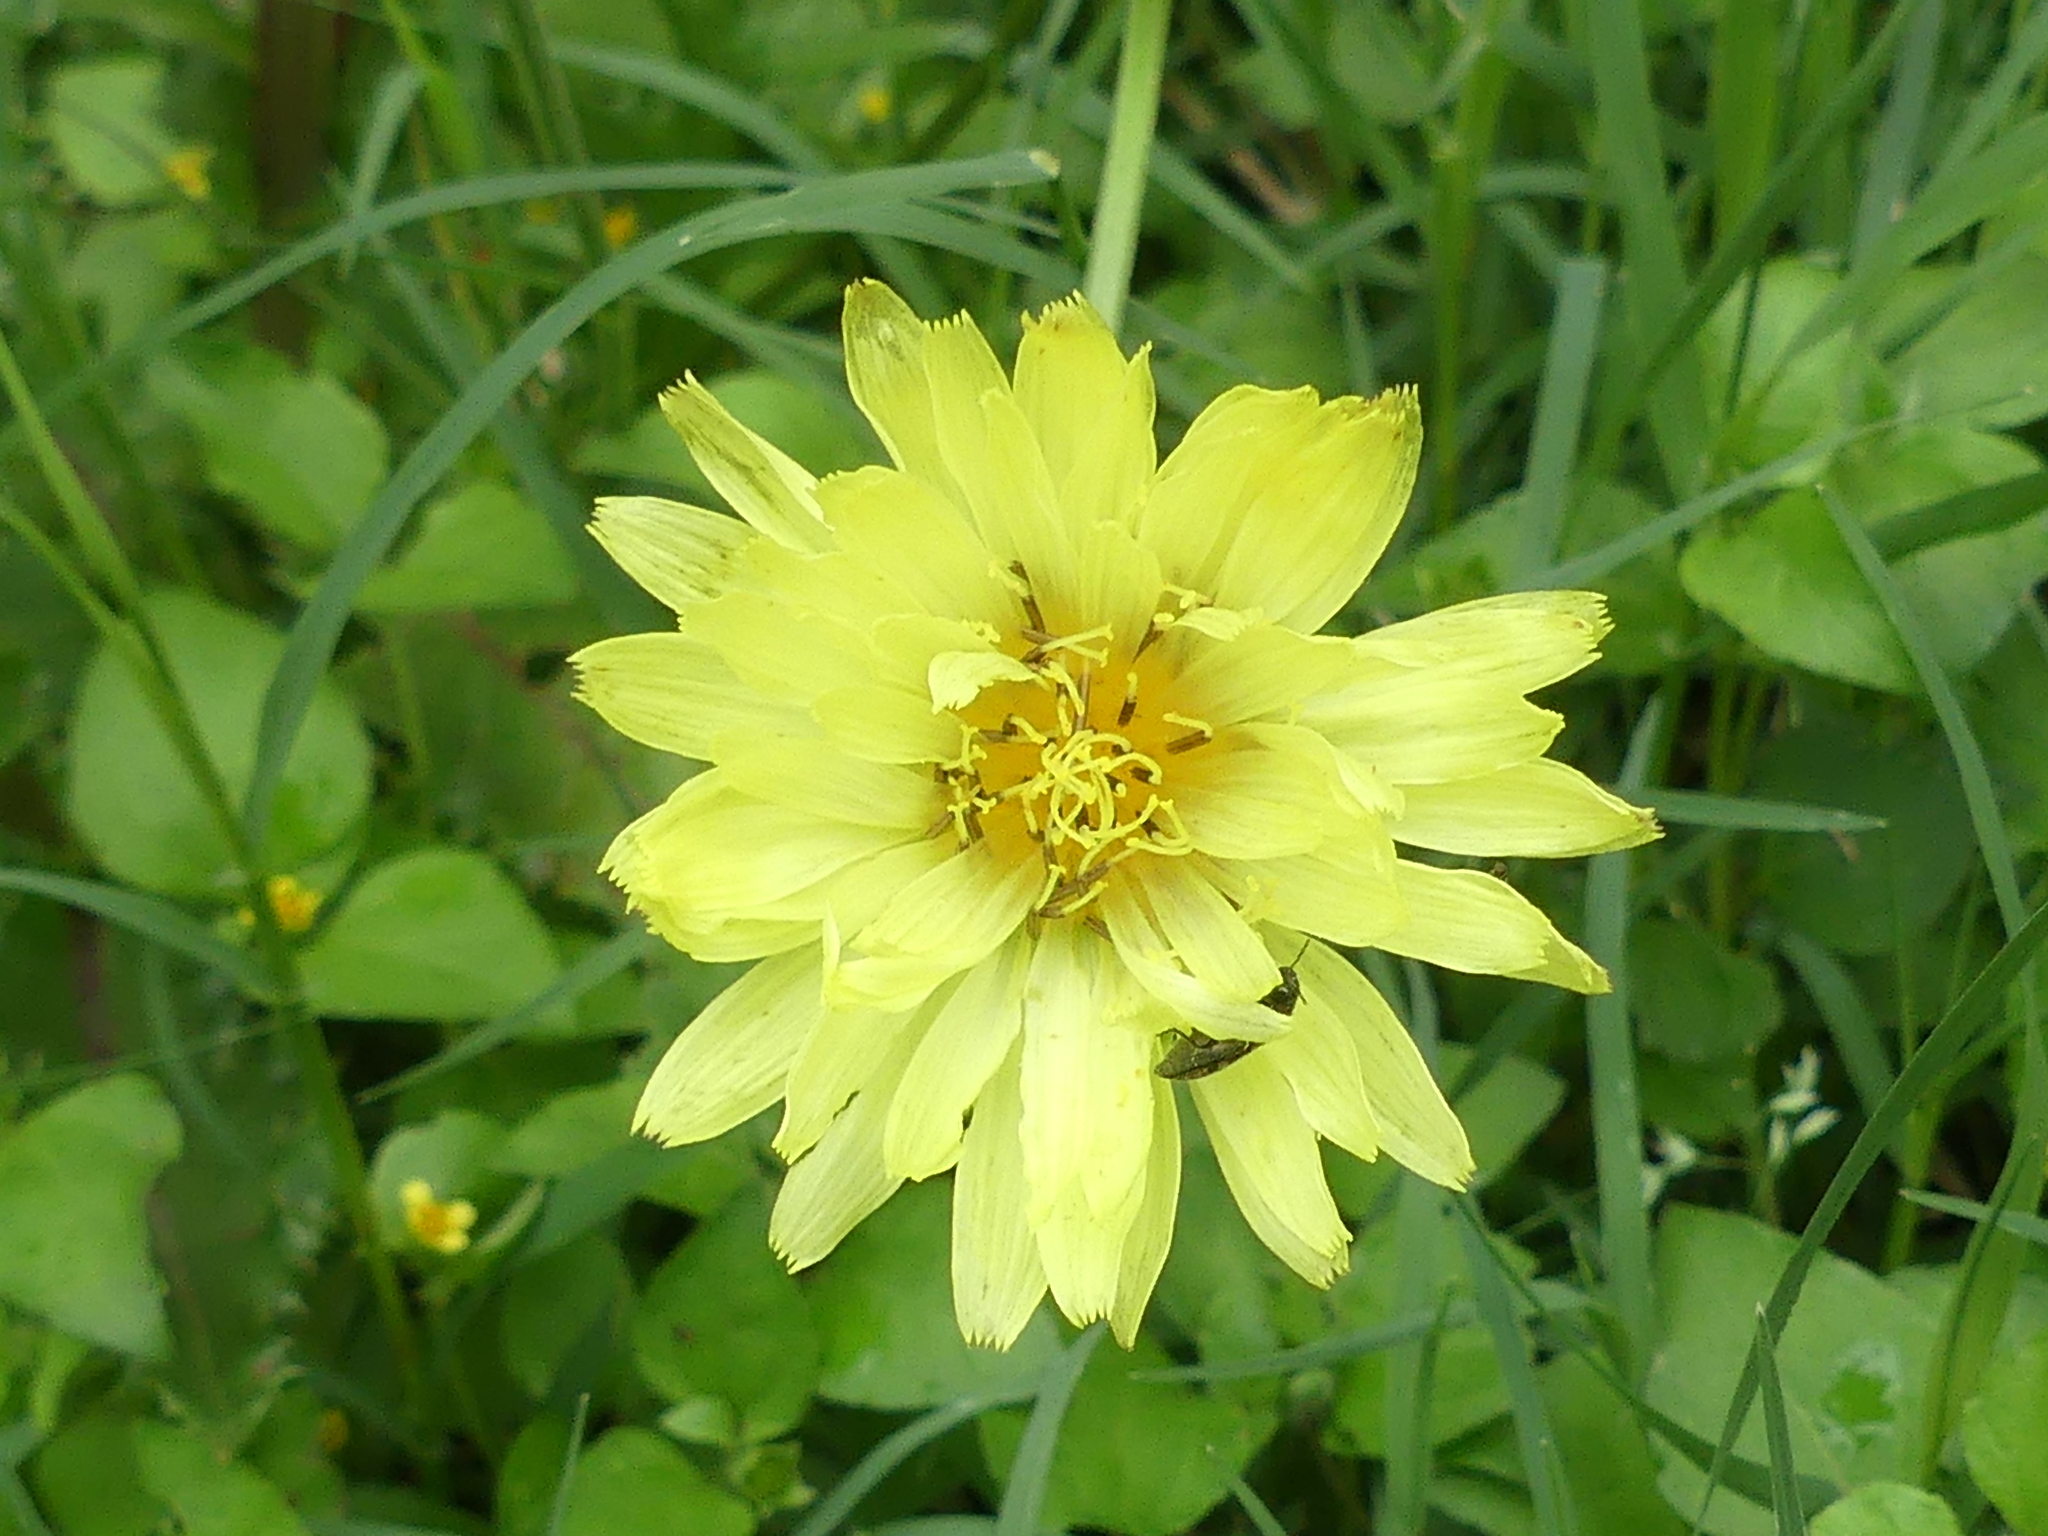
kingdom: Plantae
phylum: Tracheophyta
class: Magnoliopsida
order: Asterales
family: Asteraceae
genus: Pyrrhopappus
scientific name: Pyrrhopappus pauciflorus
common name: Texas false dandelion
